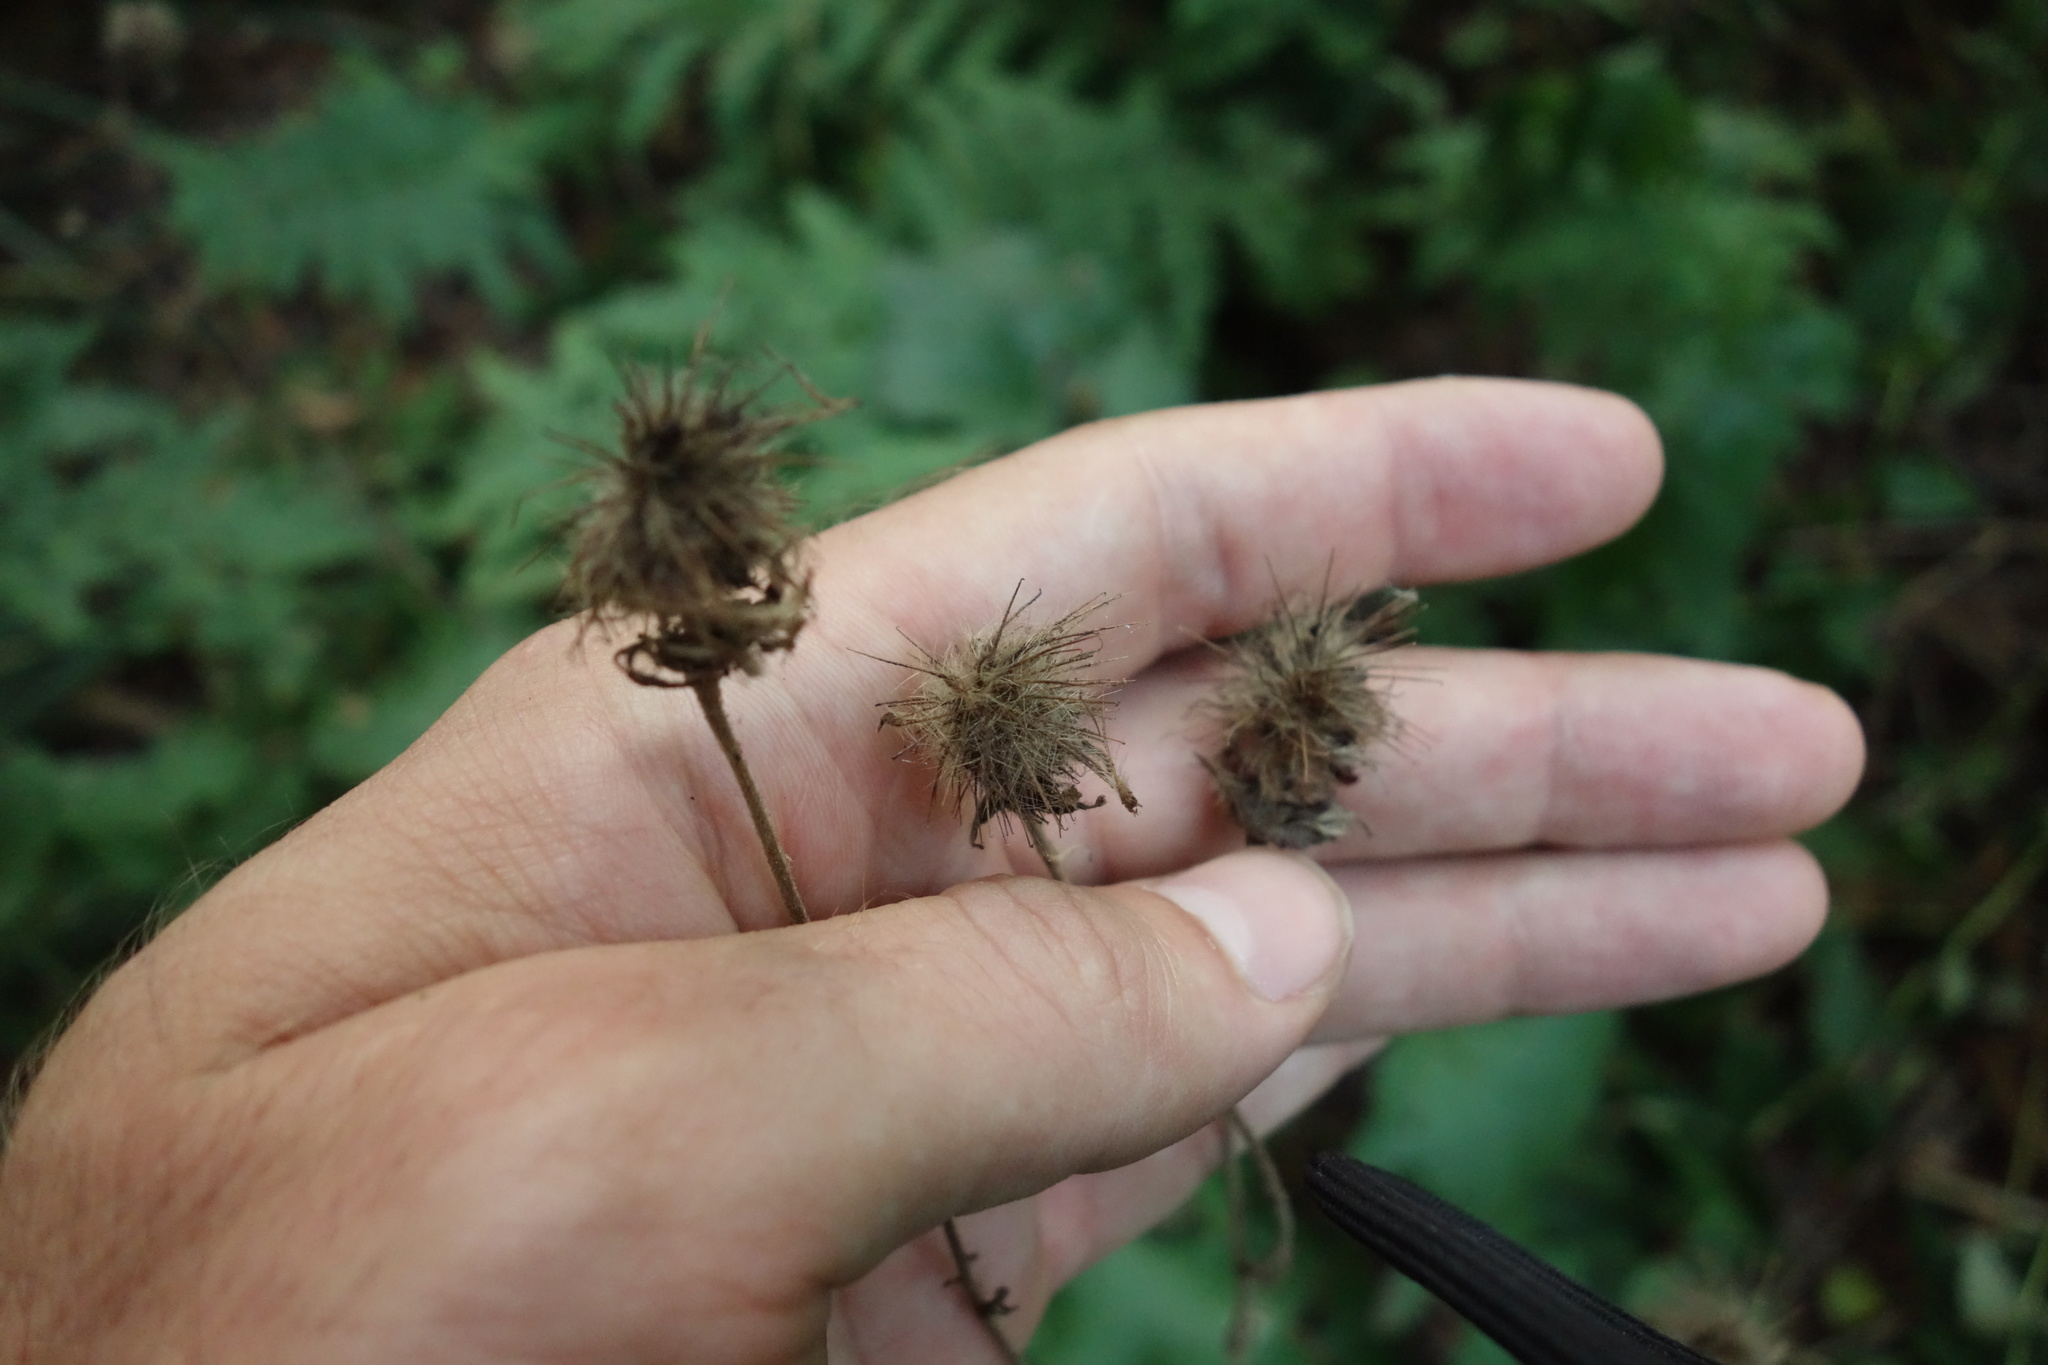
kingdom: Plantae
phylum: Tracheophyta
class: Magnoliopsida
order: Rosales
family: Rosaceae
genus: Geum
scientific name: Geum rivale
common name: Water avens
